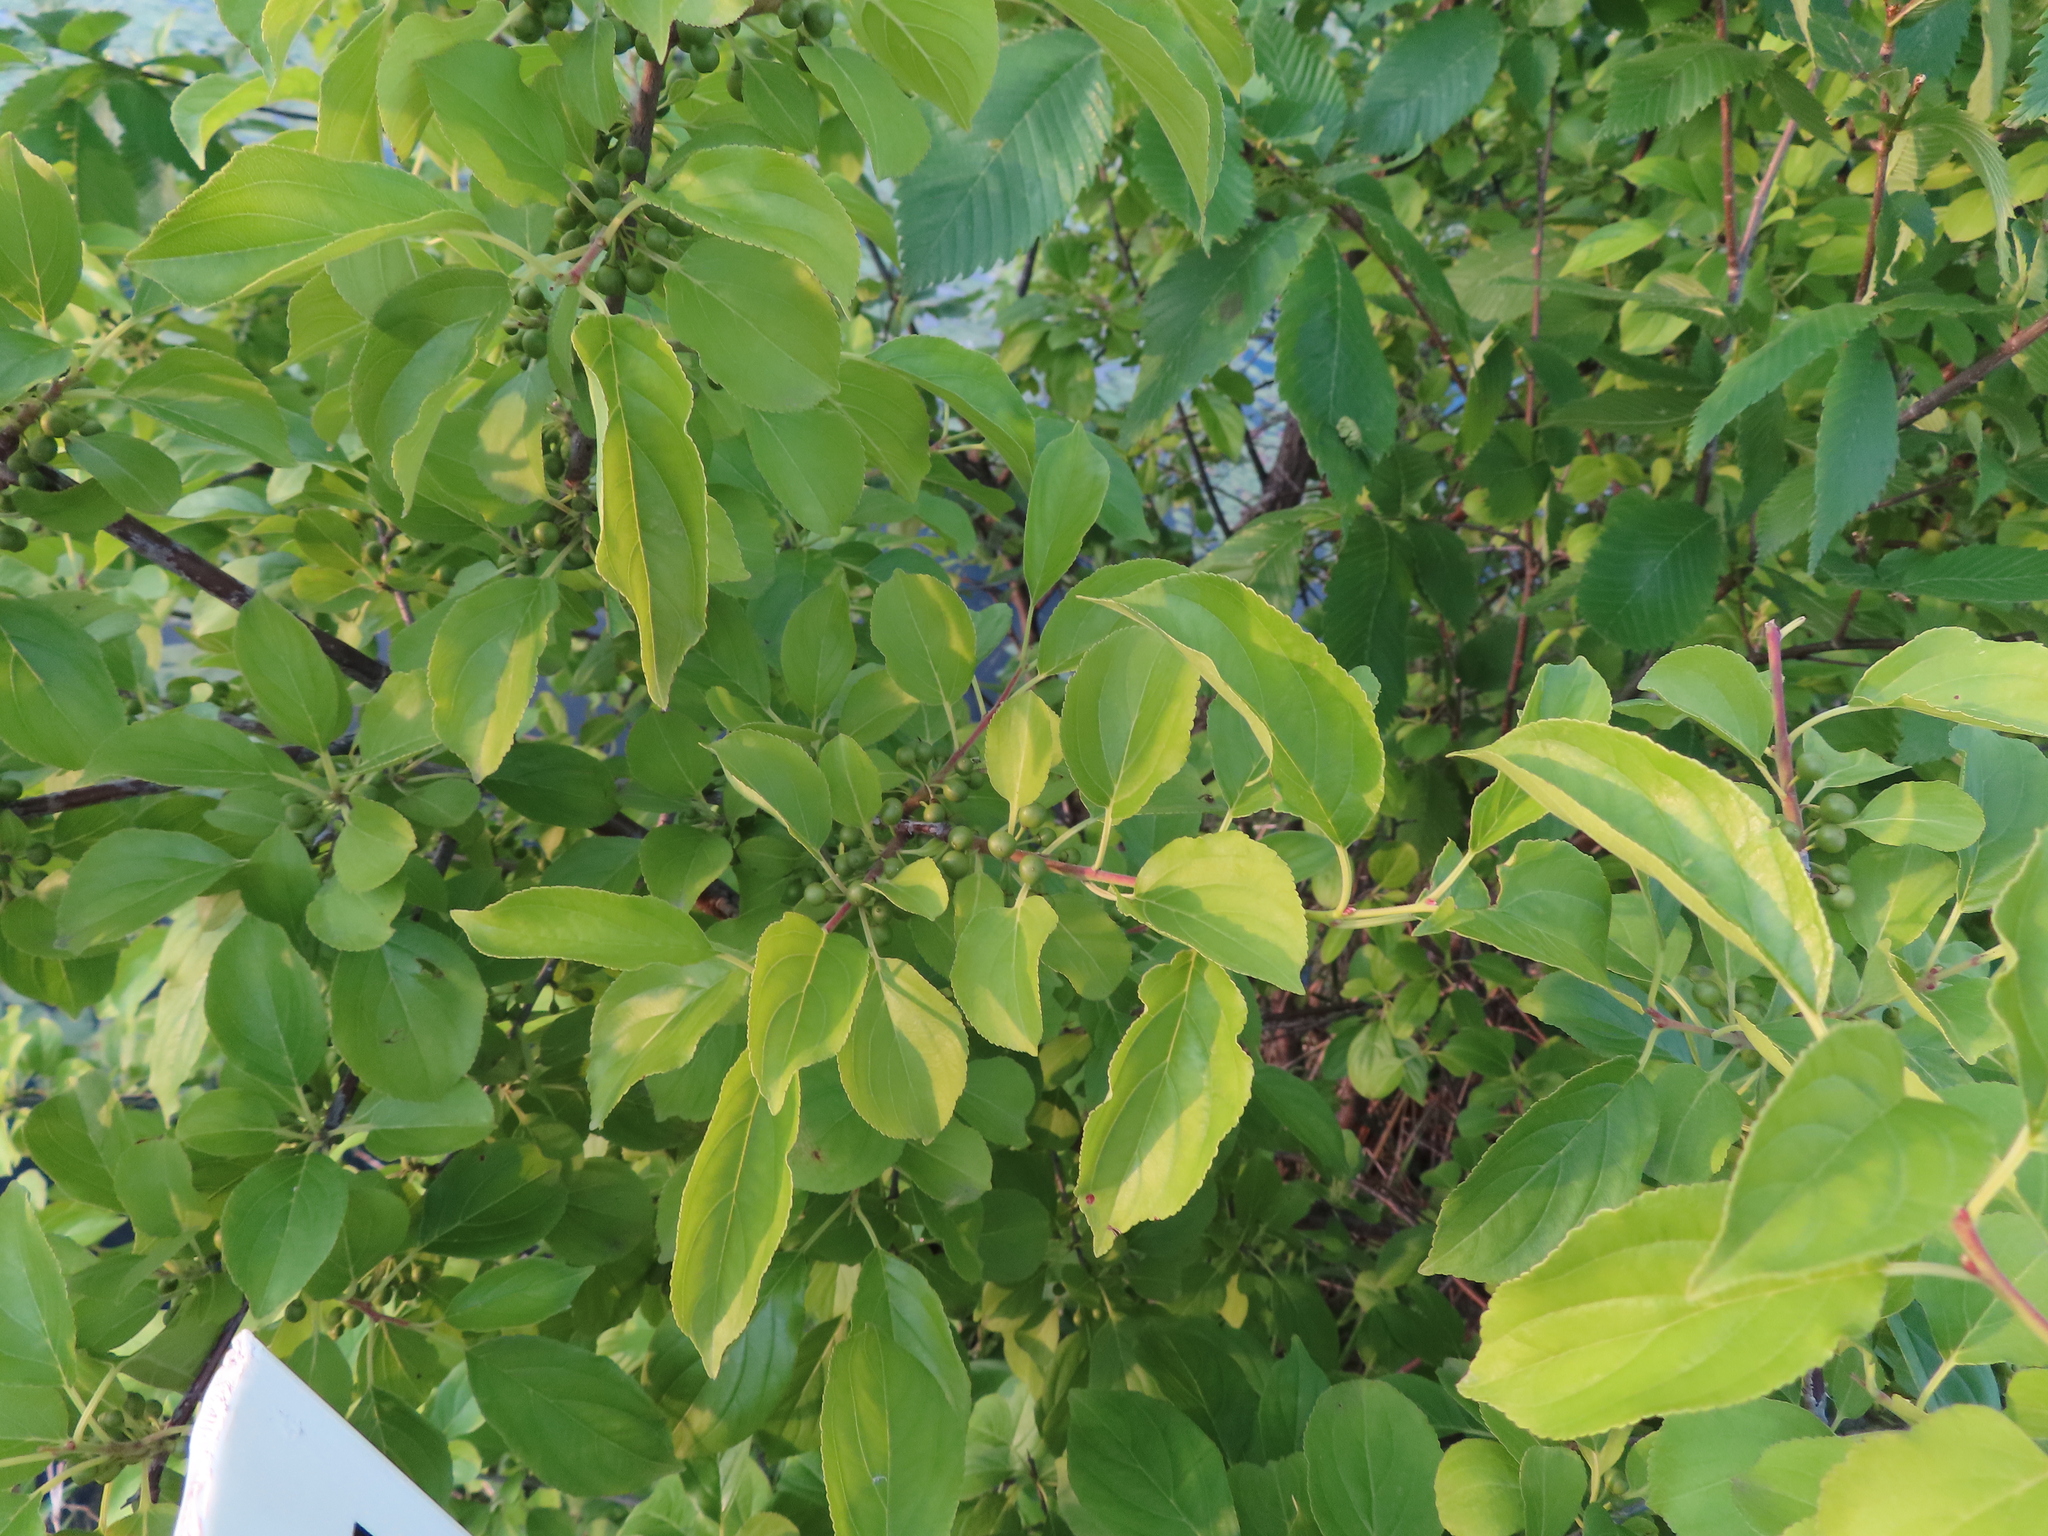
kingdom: Plantae
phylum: Tracheophyta
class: Magnoliopsida
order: Rosales
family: Rhamnaceae
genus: Rhamnus
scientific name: Rhamnus cathartica
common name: Common buckthorn
